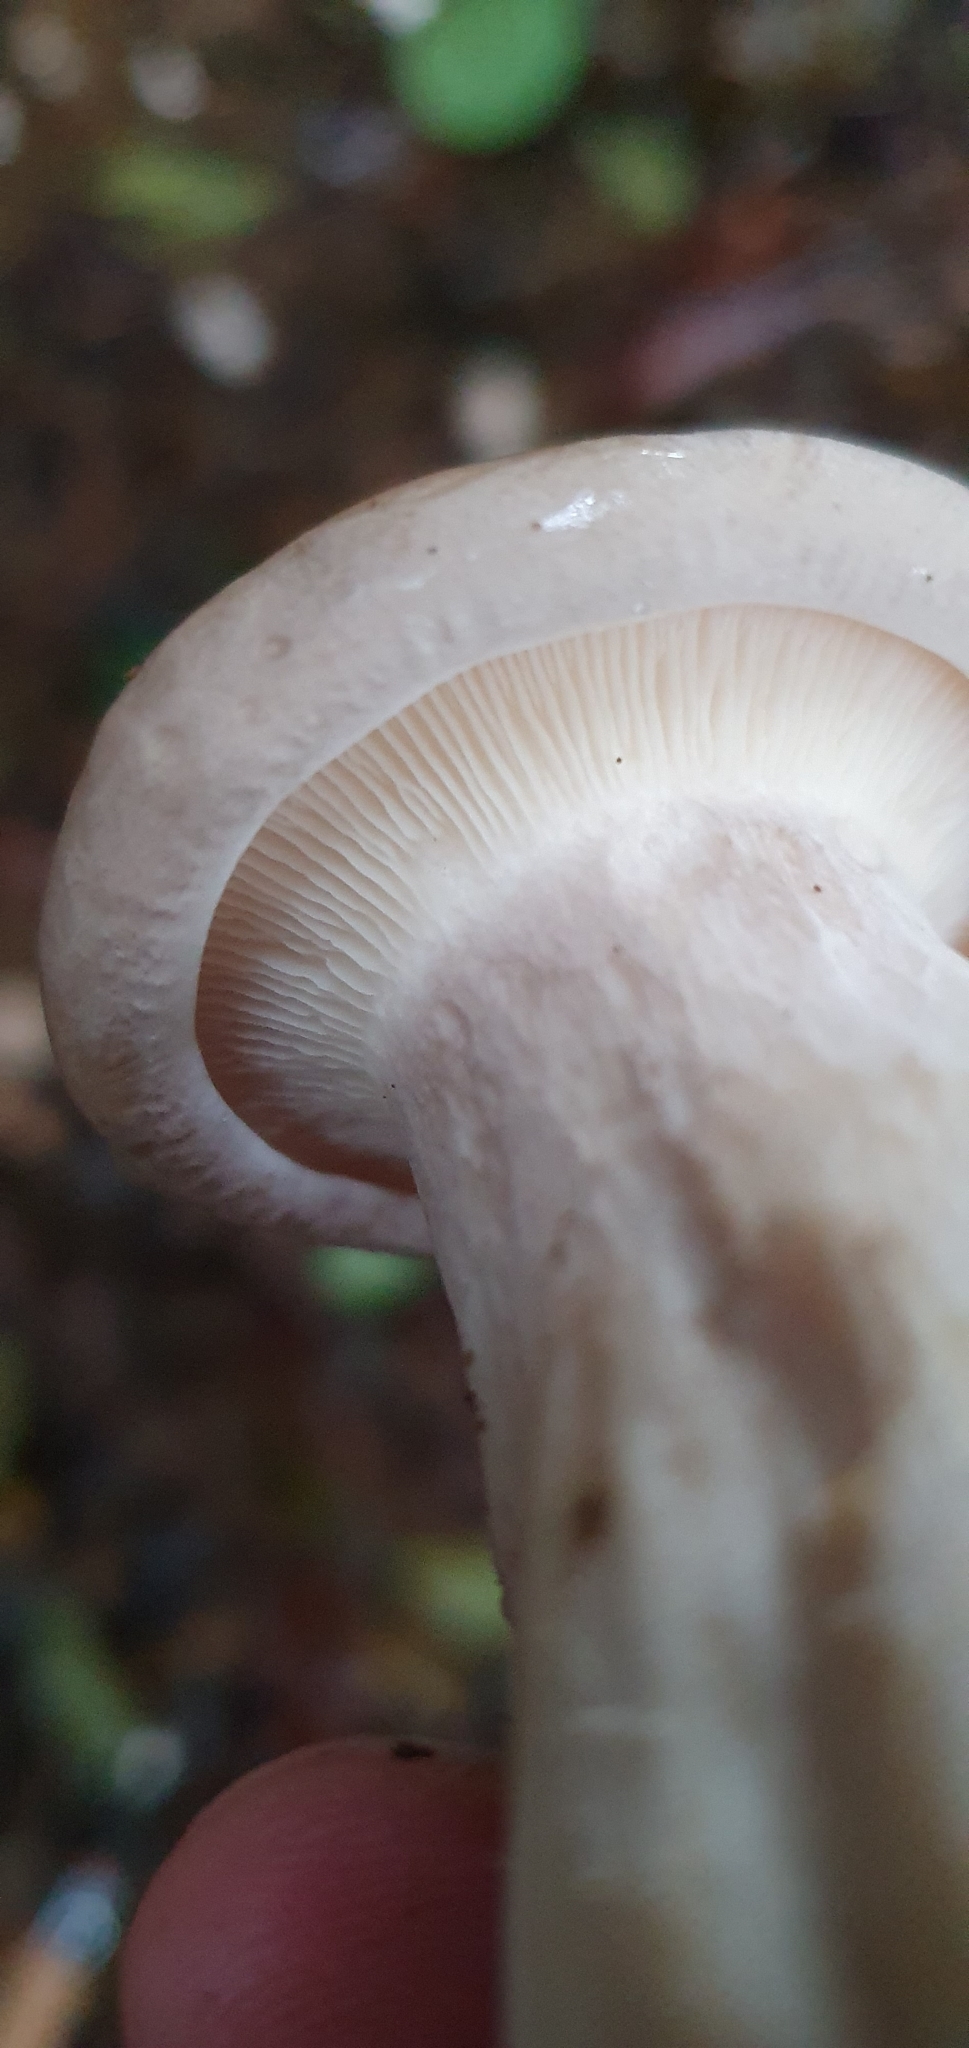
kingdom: Fungi
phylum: Basidiomycota
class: Agaricomycetes
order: Agaricales
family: Tricholomataceae
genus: Clitocybe
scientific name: Clitocybe nebularis
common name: Clouded agaric
